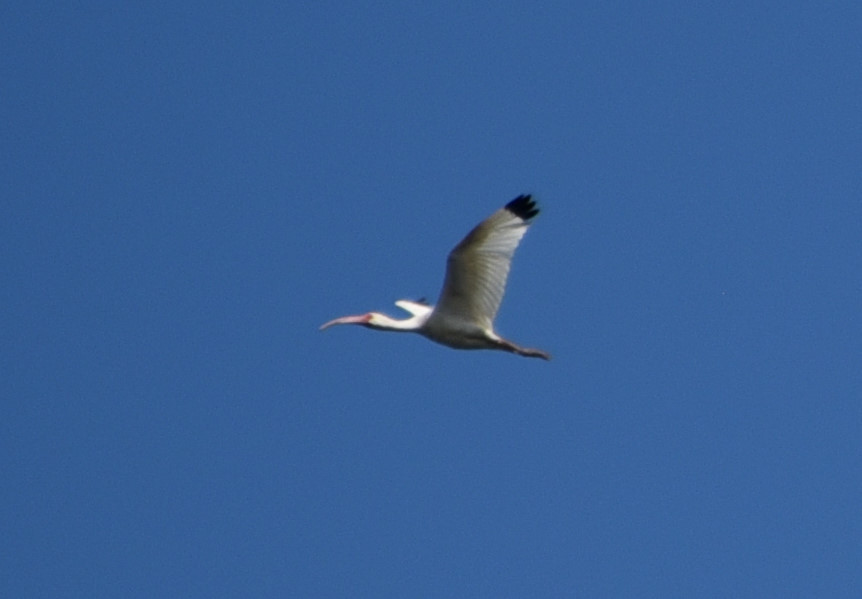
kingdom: Animalia
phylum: Chordata
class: Aves
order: Pelecaniformes
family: Threskiornithidae
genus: Eudocimus
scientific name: Eudocimus albus
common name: White ibis
